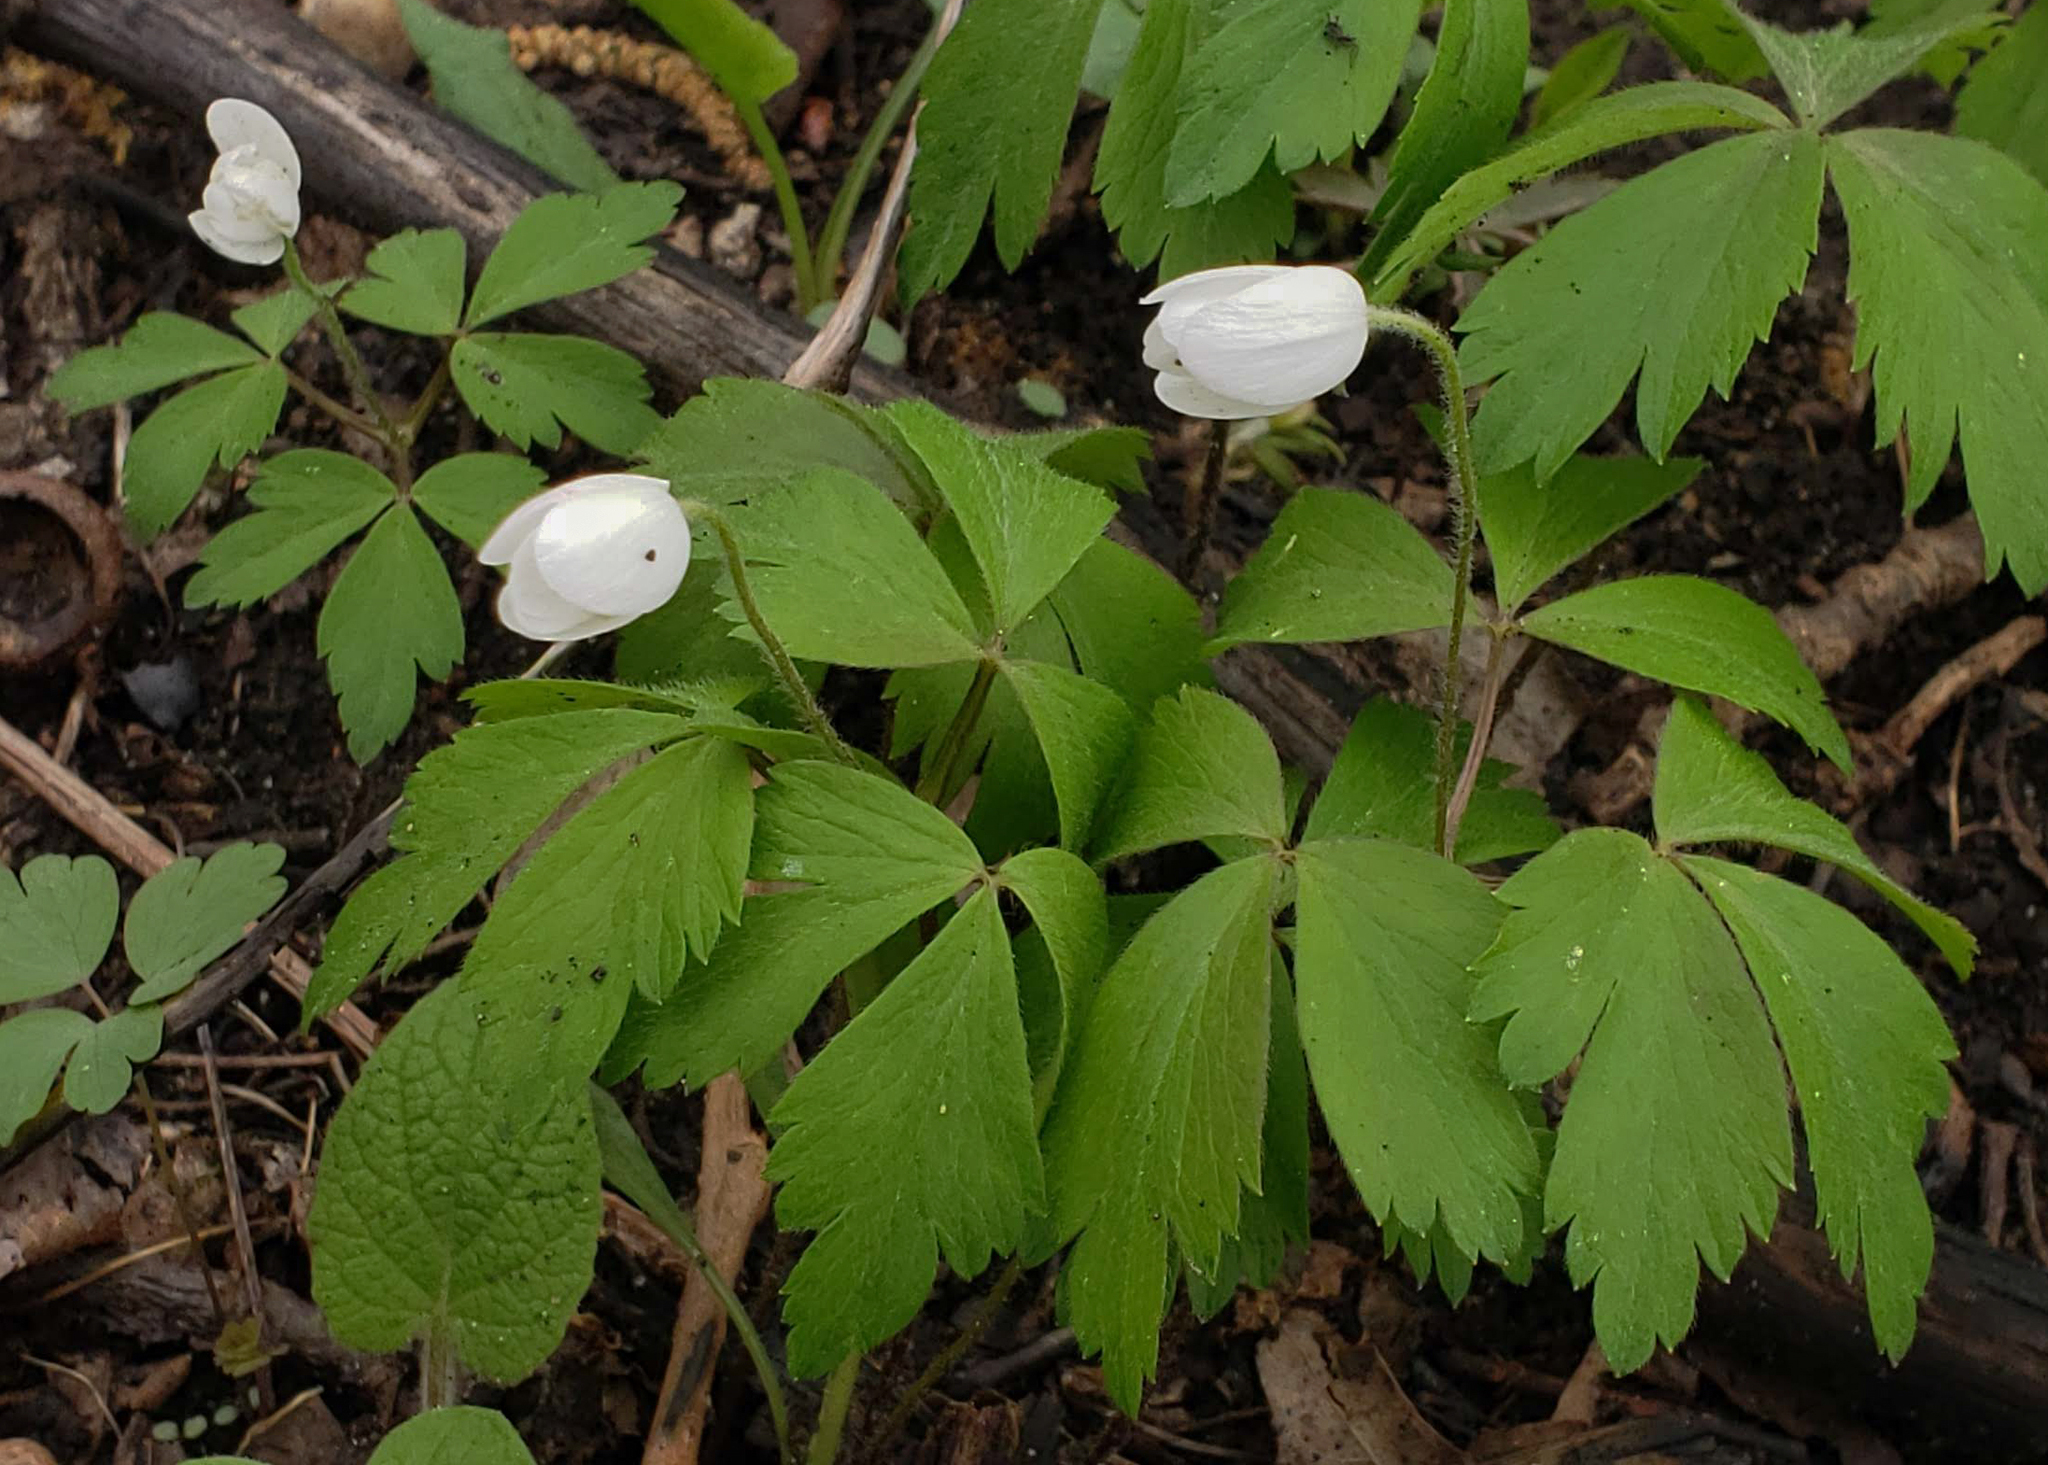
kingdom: Plantae
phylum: Tracheophyta
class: Magnoliopsida
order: Ranunculales
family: Ranunculaceae
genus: Anemone
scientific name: Anemone quinquefolia
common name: Wood anemone
